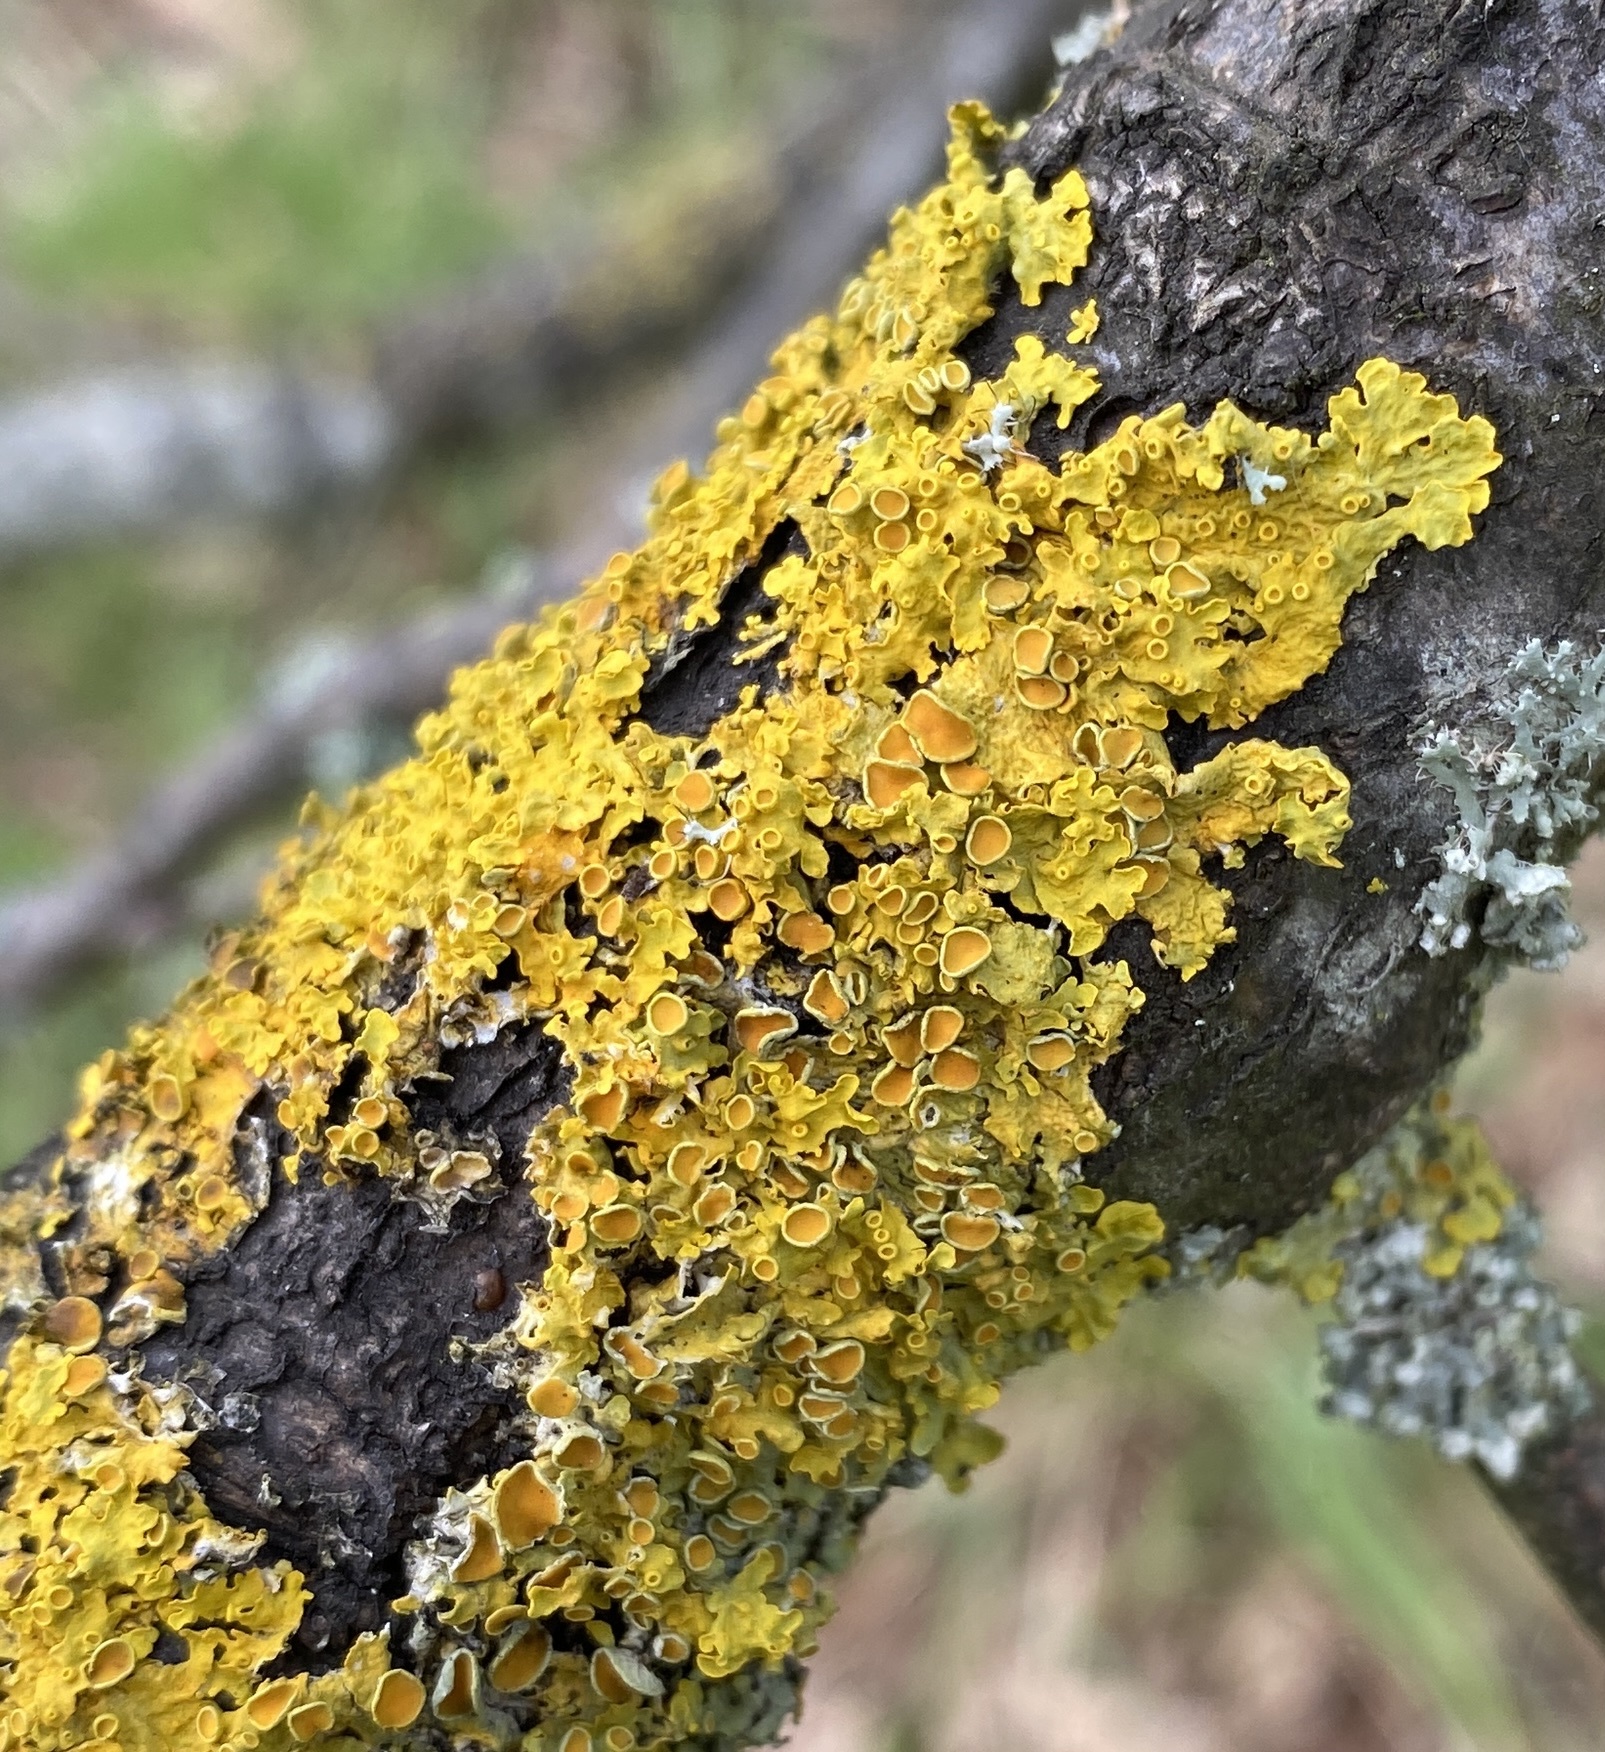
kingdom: Fungi
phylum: Ascomycota
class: Lecanoromycetes
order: Teloschistales
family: Teloschistaceae
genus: Xanthoria
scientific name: Xanthoria parietina
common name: Common orange lichen
